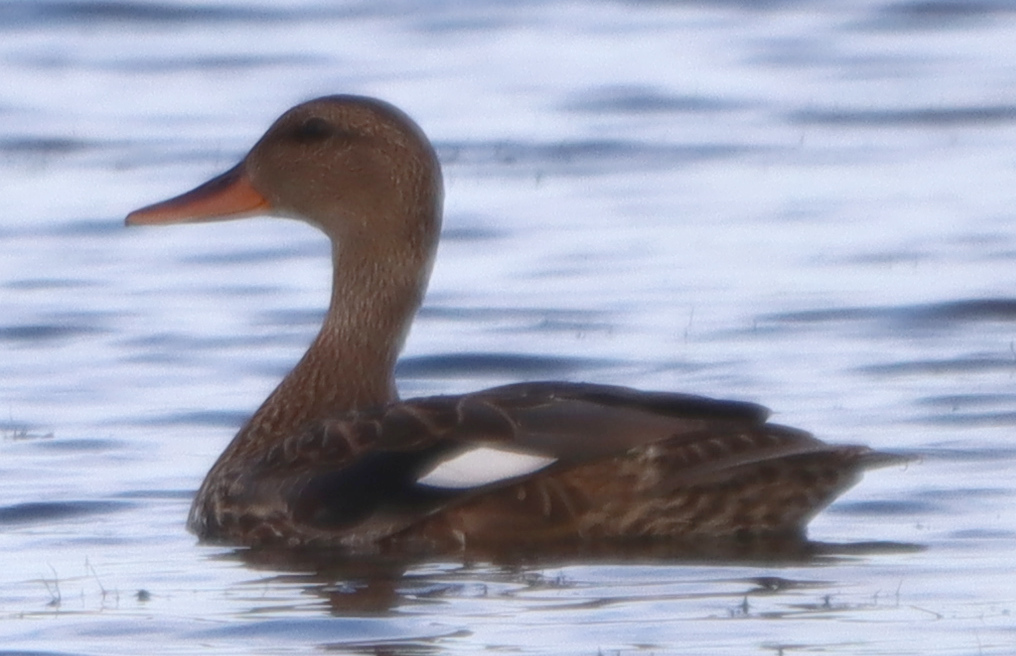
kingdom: Animalia
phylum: Chordata
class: Aves
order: Anseriformes
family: Anatidae
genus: Mareca
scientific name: Mareca strepera
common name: Gadwall
